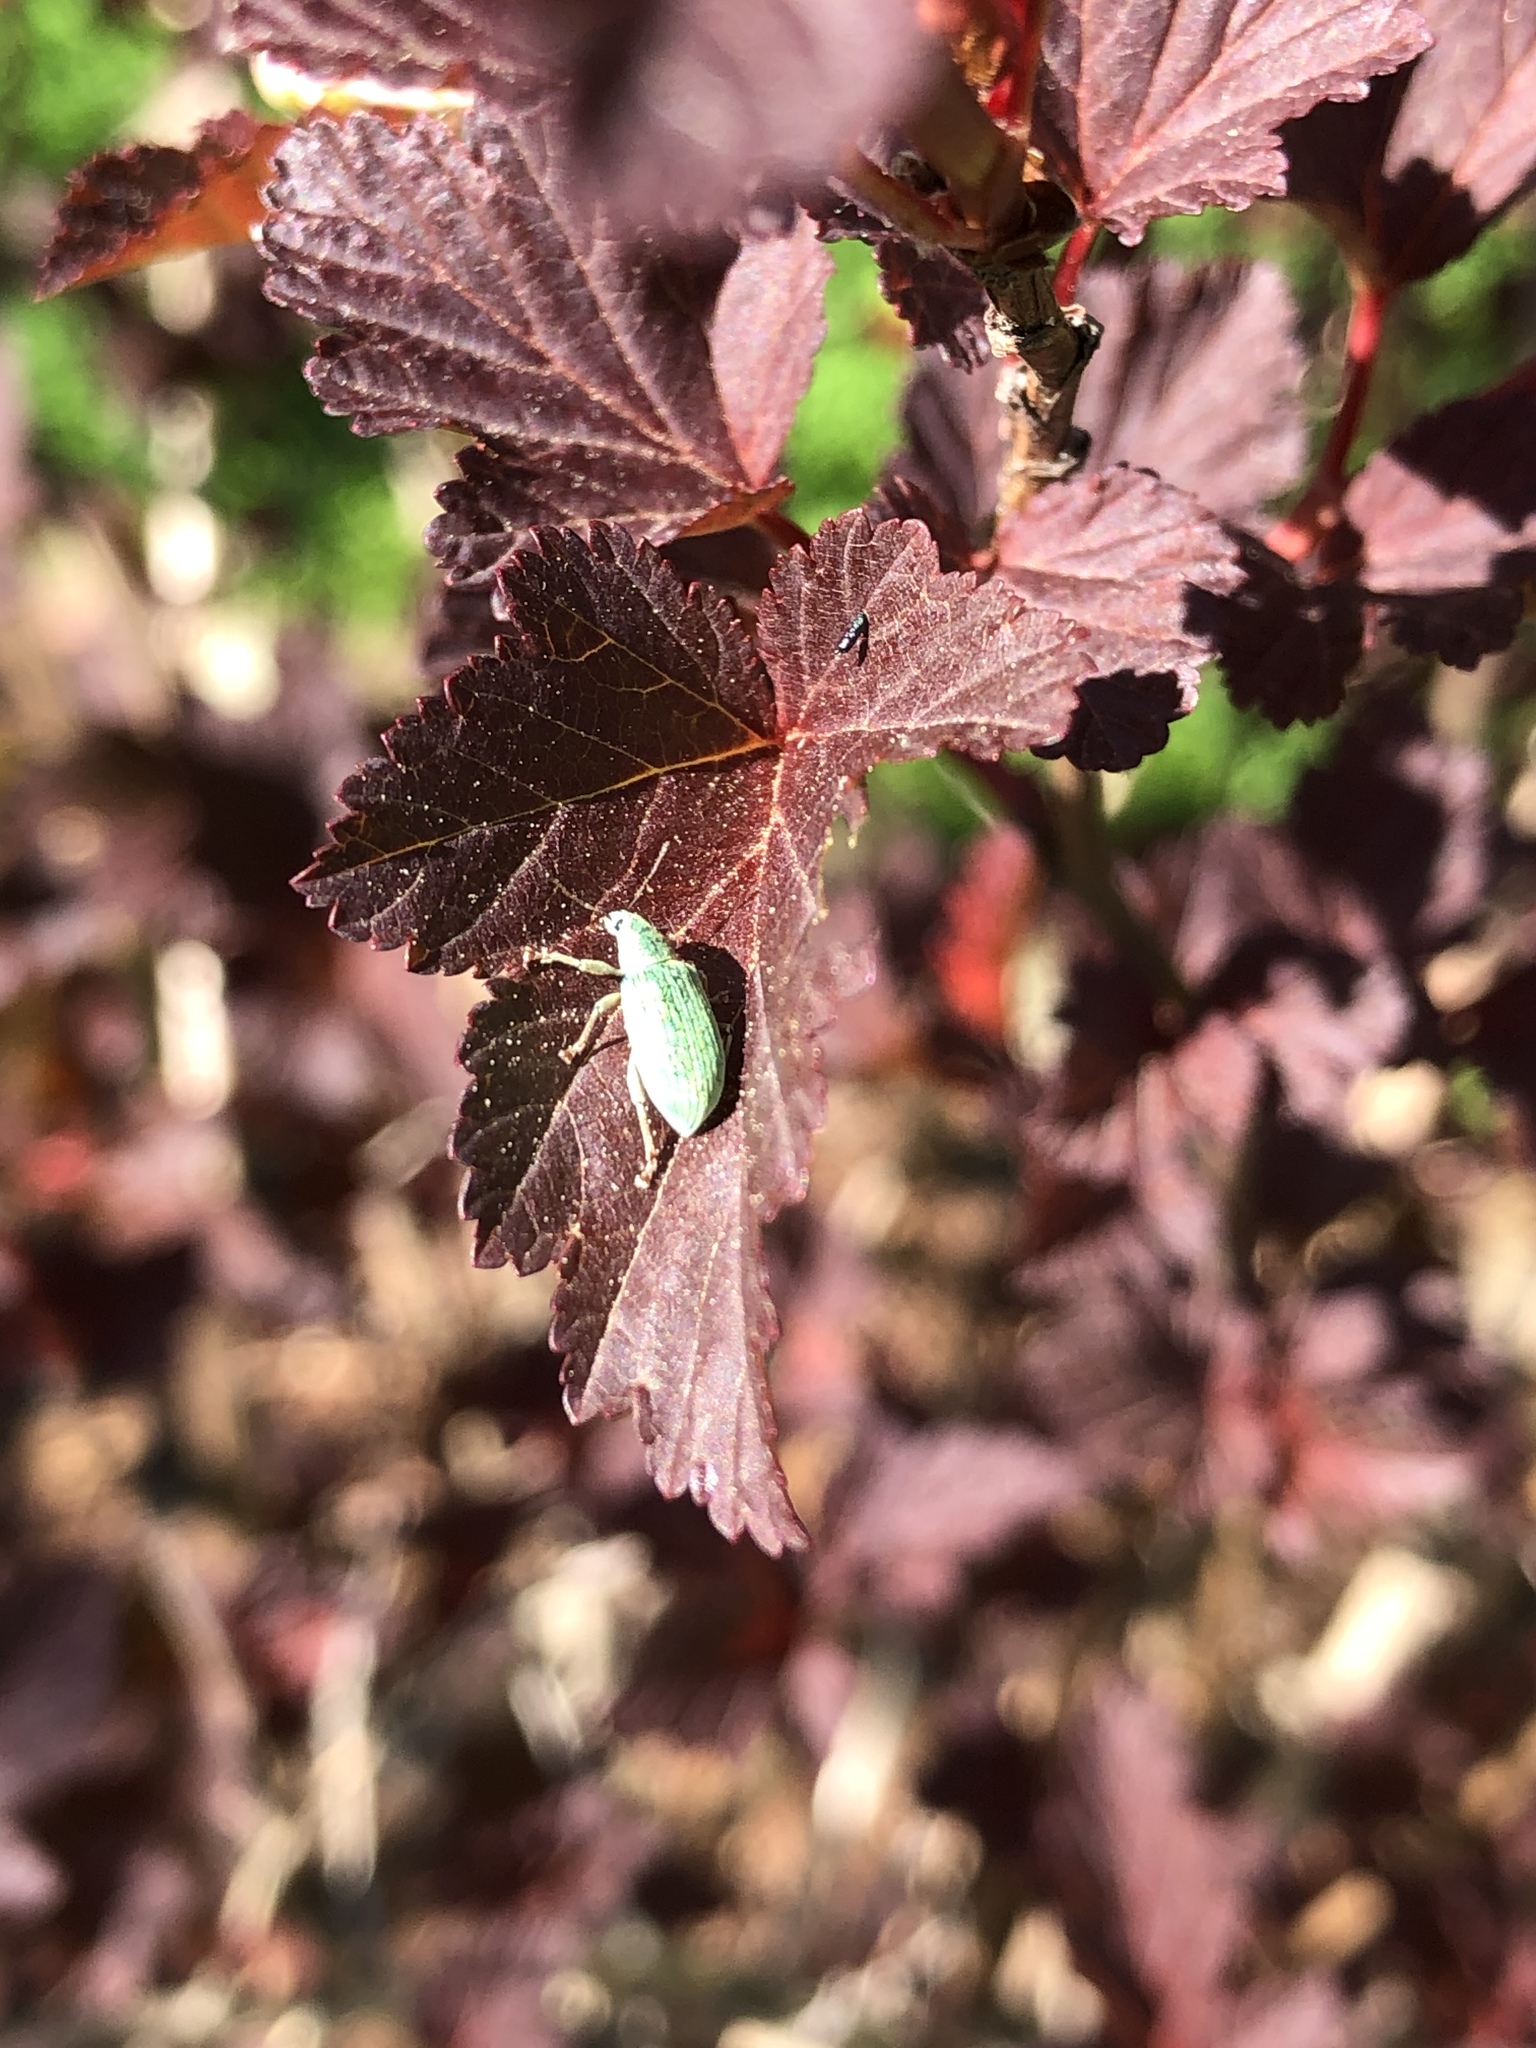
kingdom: Animalia
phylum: Arthropoda
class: Insecta
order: Coleoptera
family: Curculionidae
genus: Polydrusus
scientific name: Polydrusus formosus
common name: Weevil
